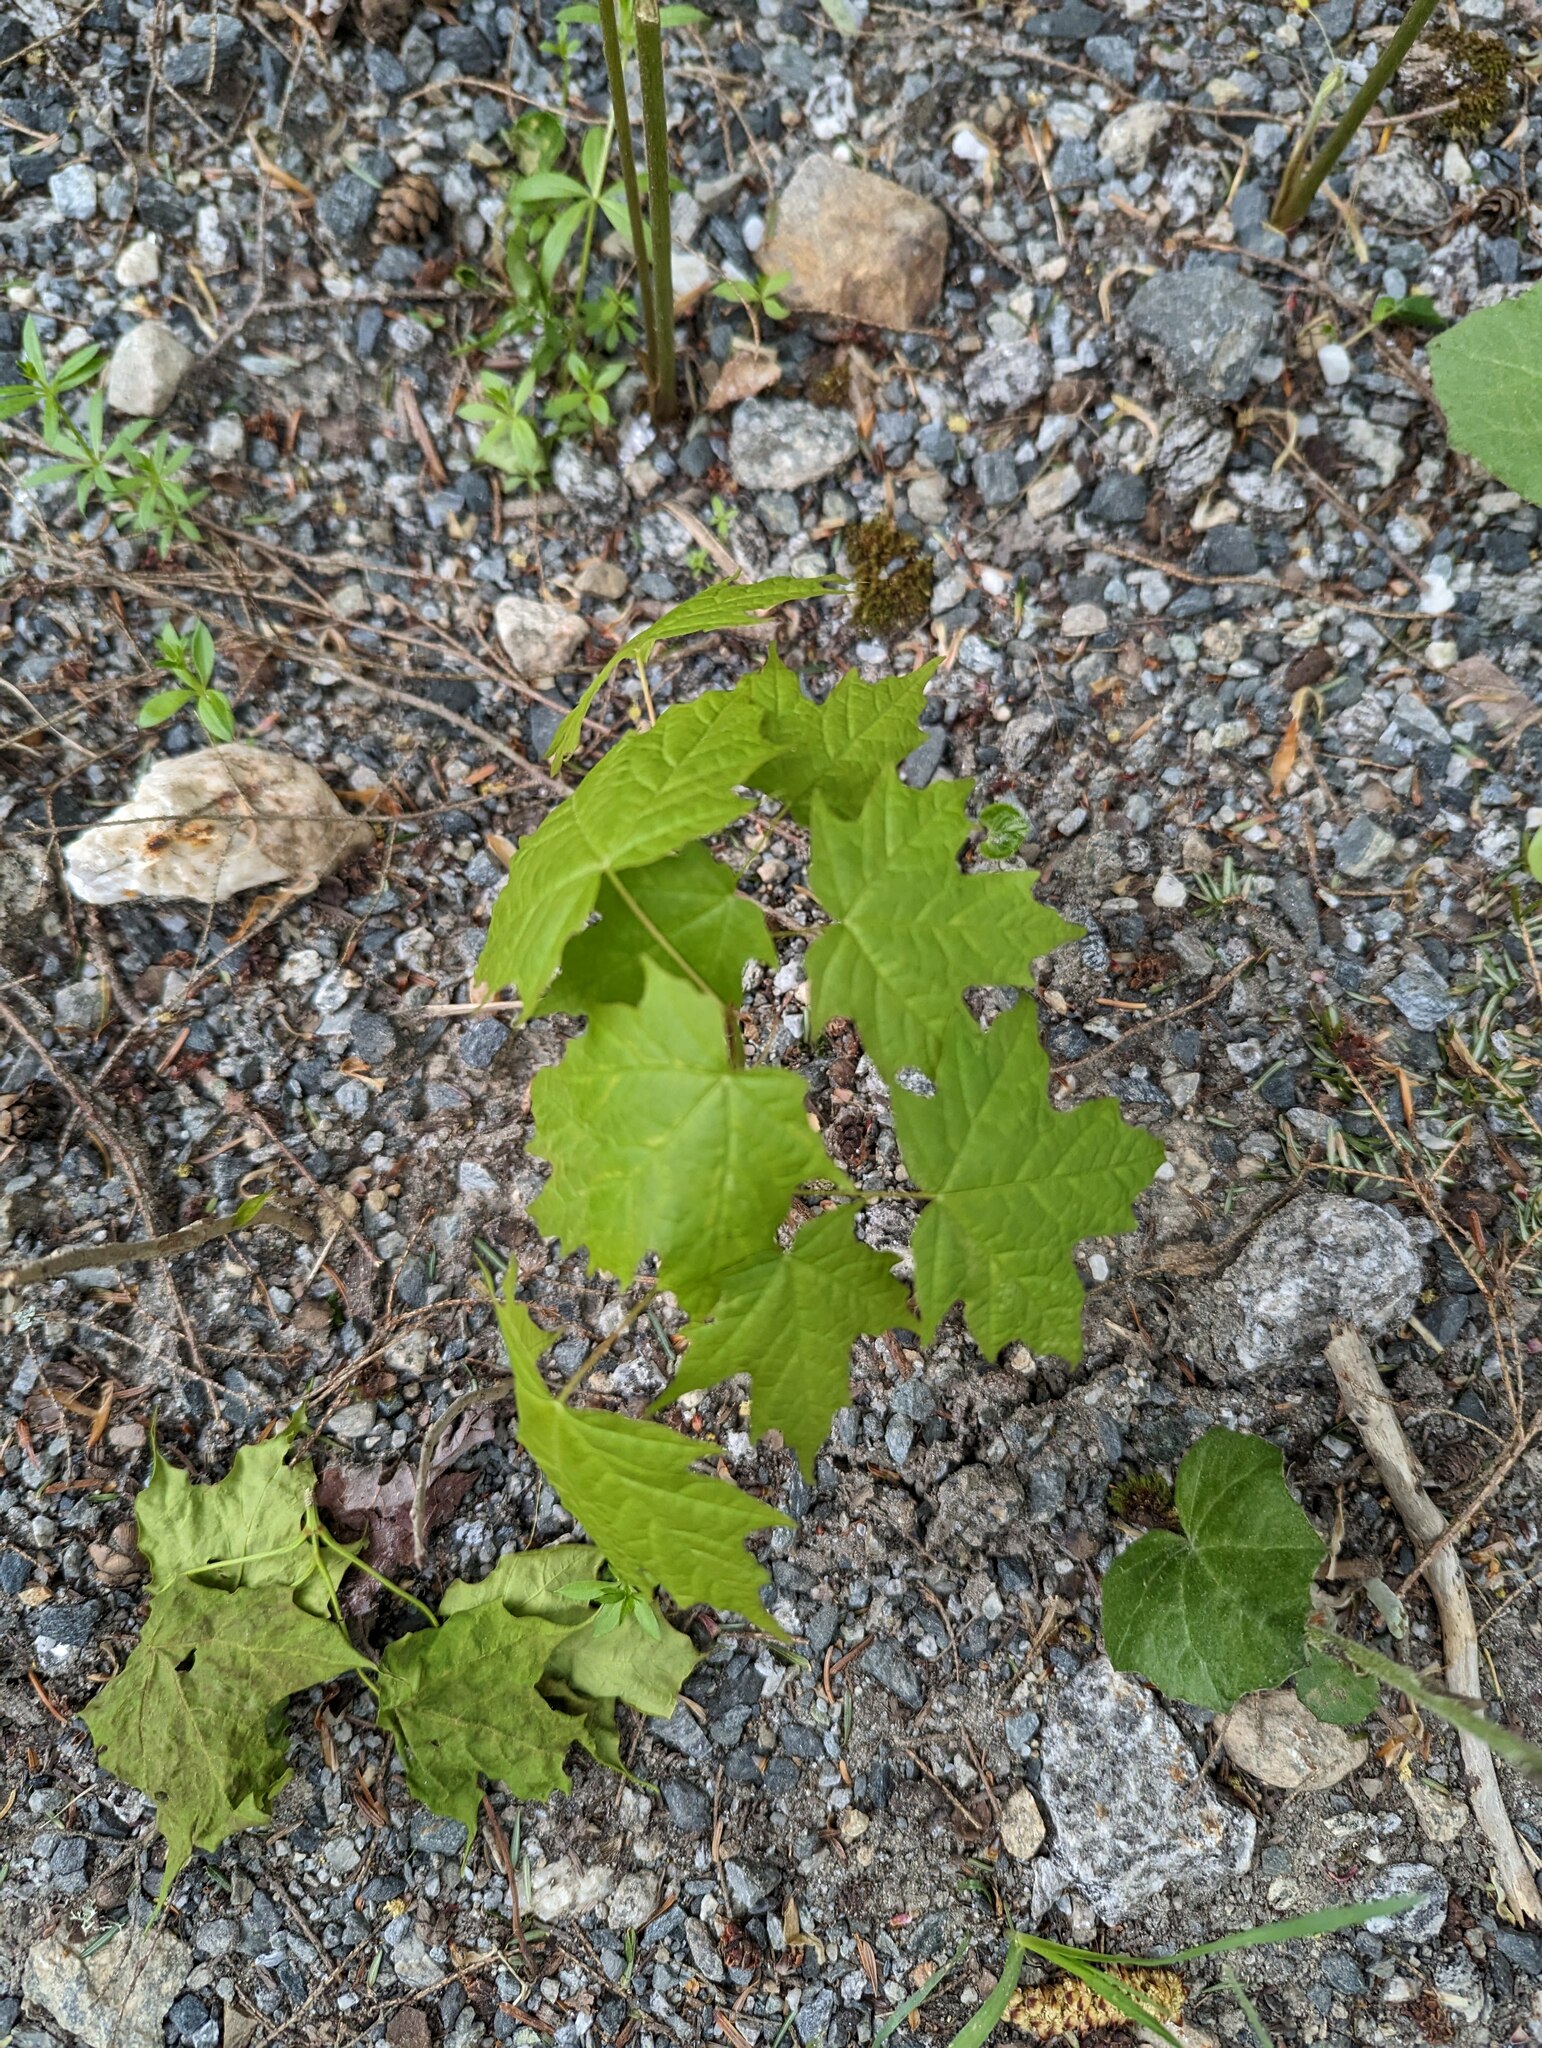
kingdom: Plantae
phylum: Tracheophyta
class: Magnoliopsida
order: Sapindales
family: Sapindaceae
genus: Acer
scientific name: Acer saccharum
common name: Sugar maple
